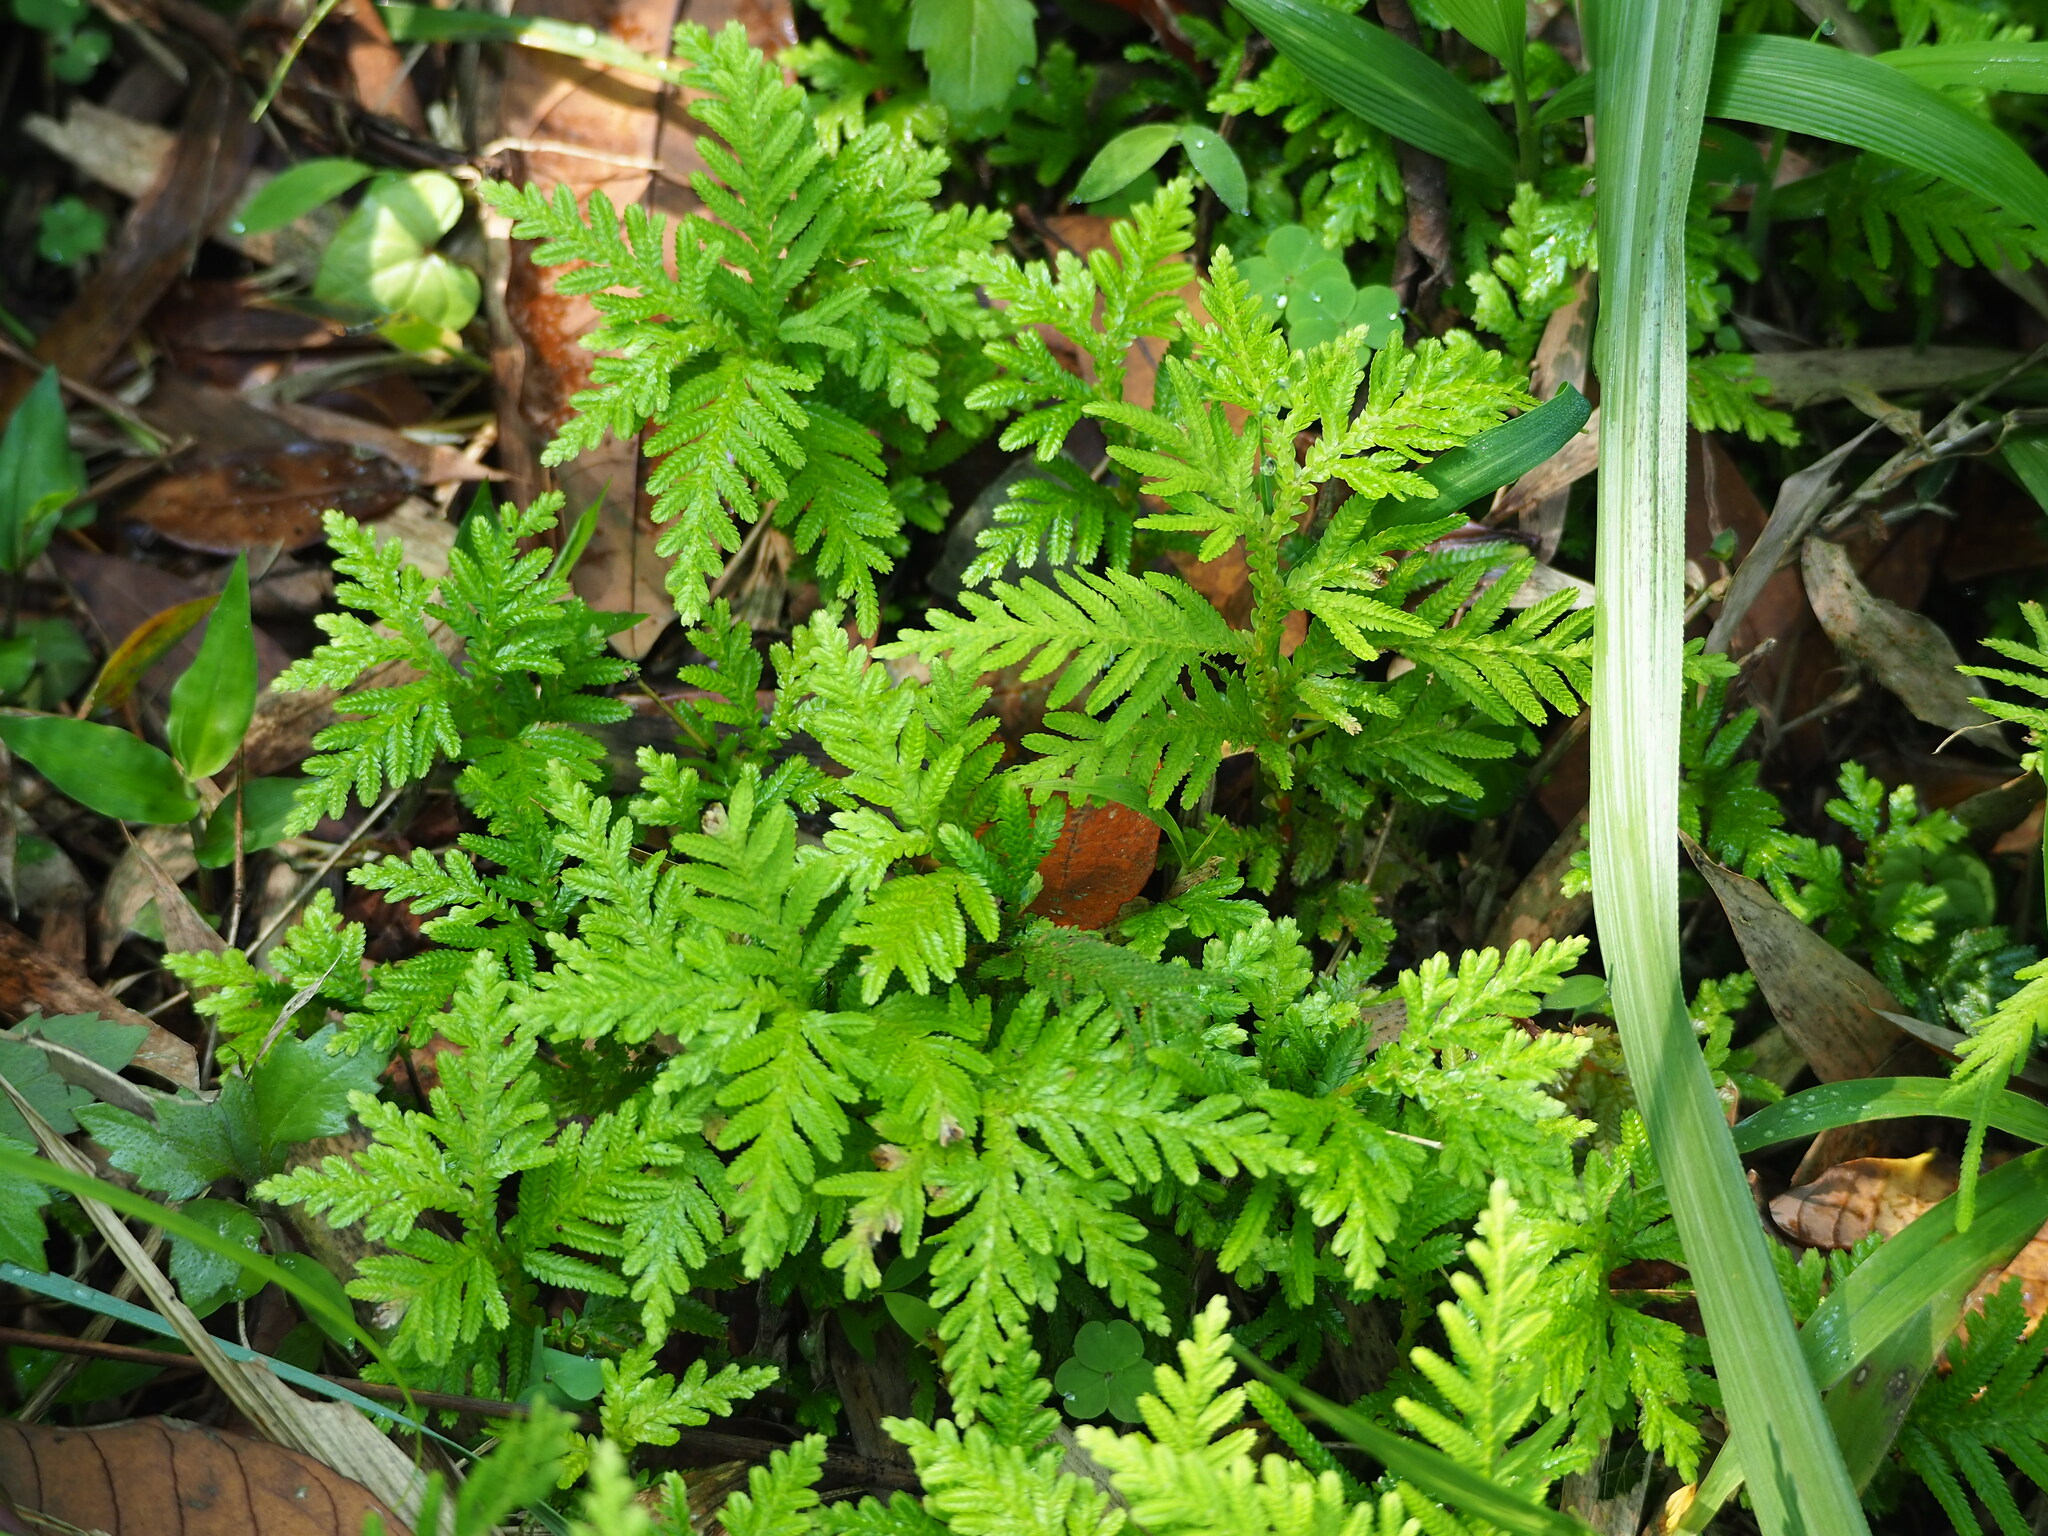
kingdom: Plantae
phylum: Tracheophyta
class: Lycopodiopsida
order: Selaginellales
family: Selaginellaceae
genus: Selaginella
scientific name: Selaginella delicatula
